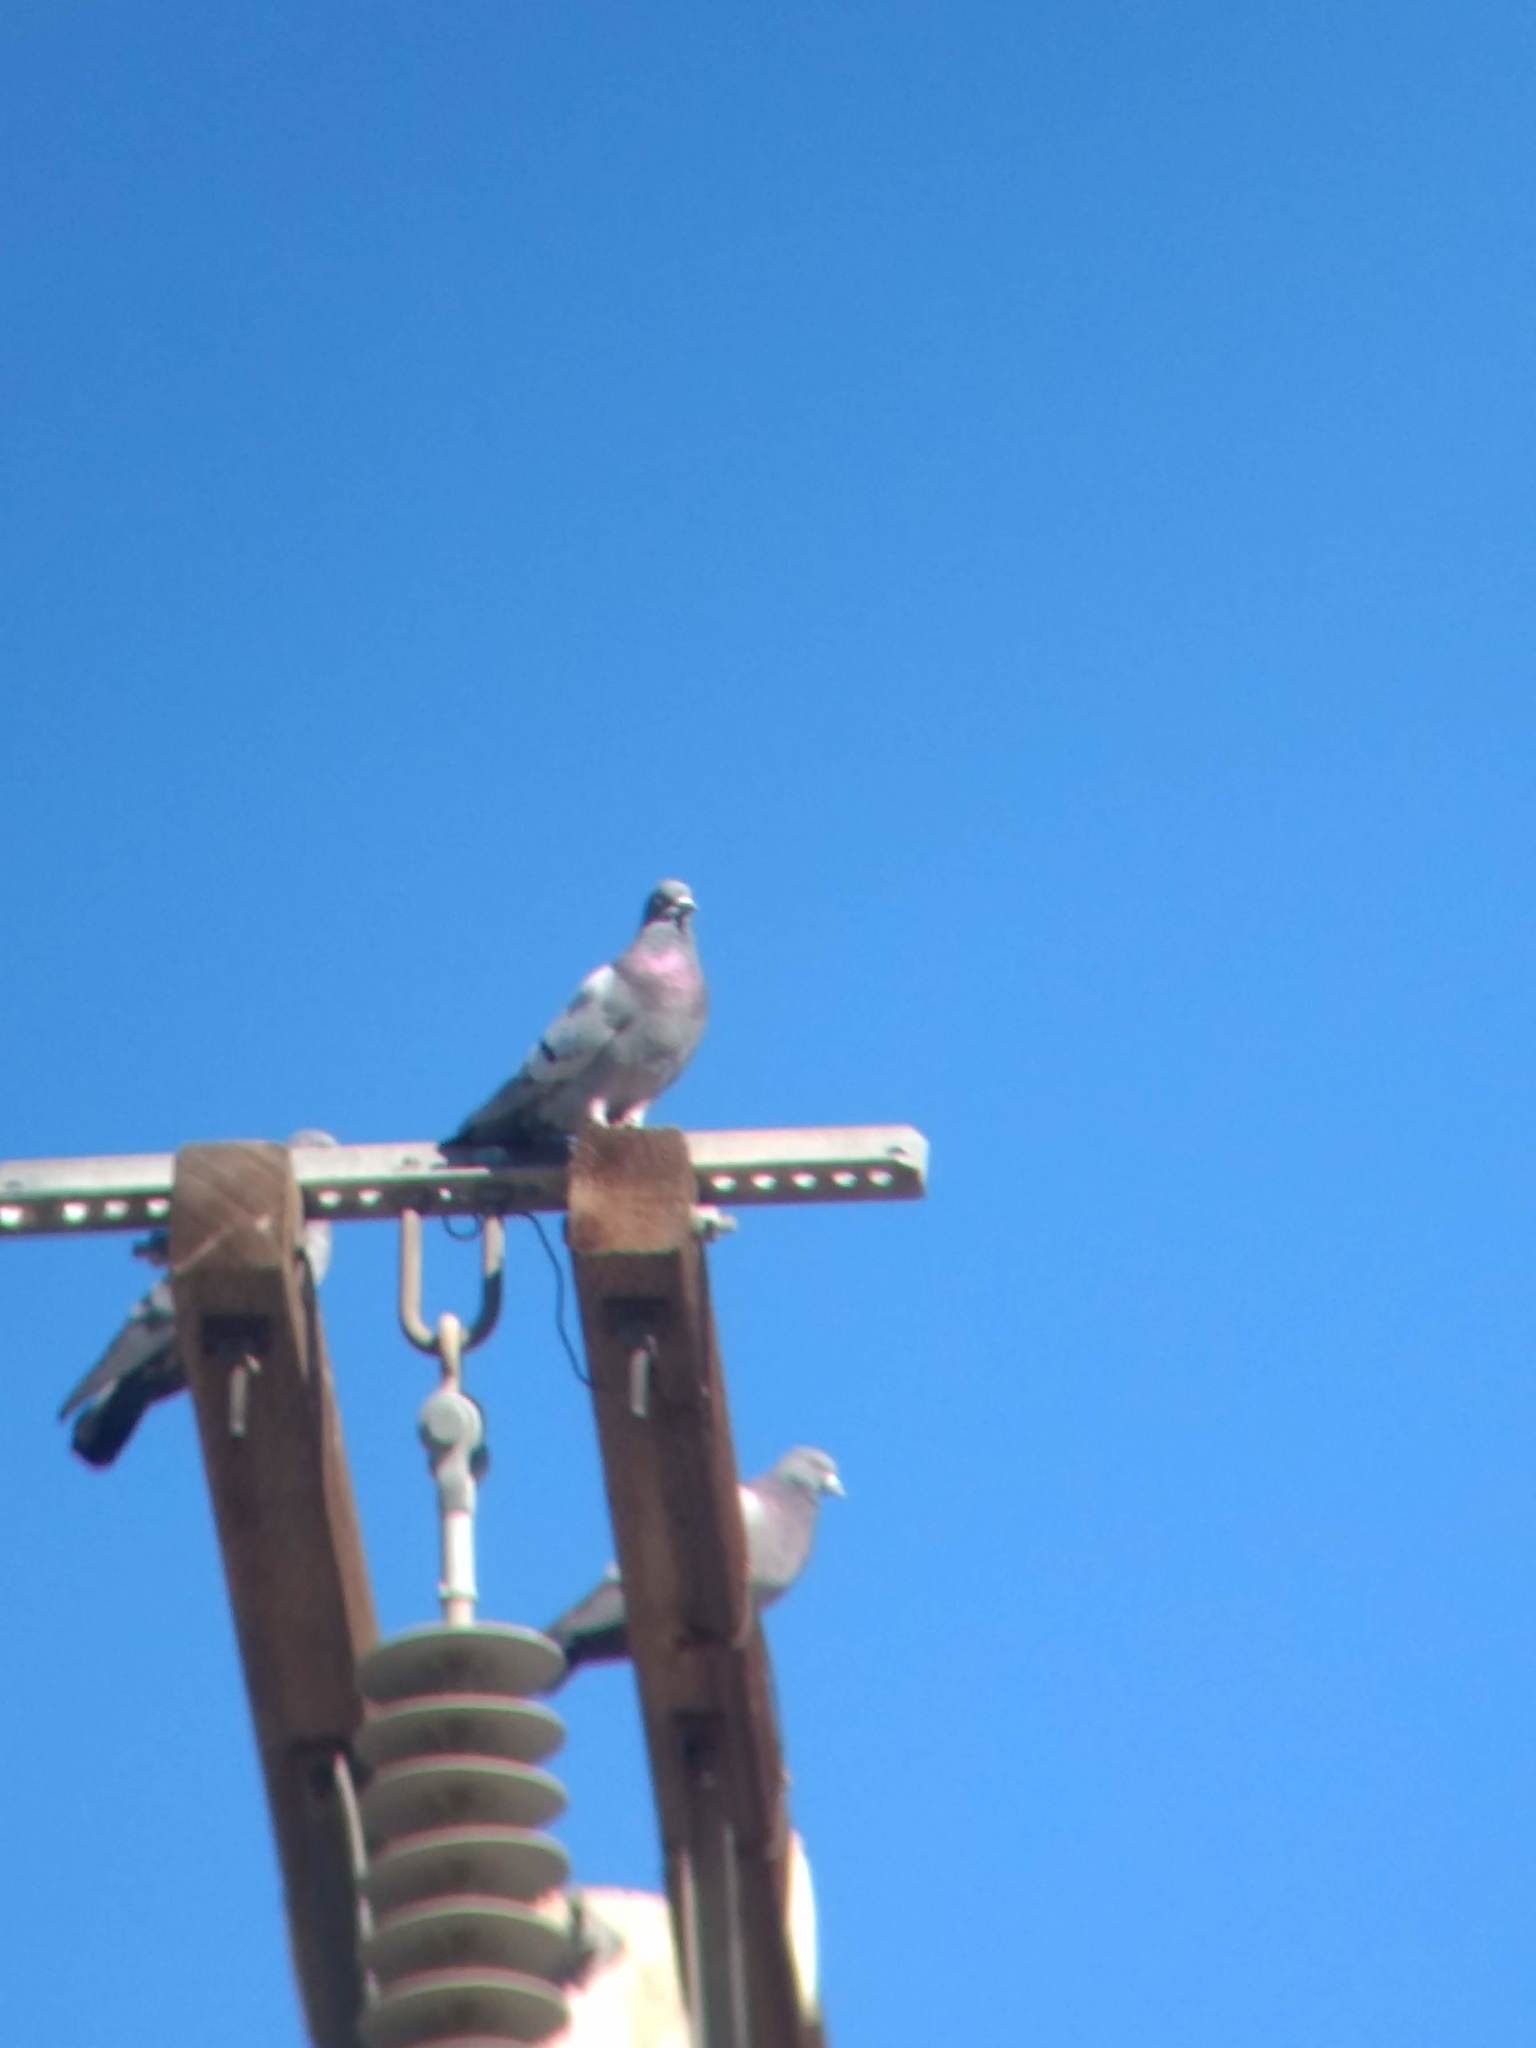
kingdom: Animalia
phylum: Chordata
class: Aves
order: Columbiformes
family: Columbidae
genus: Columba
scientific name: Columba livia
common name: Rock pigeon
